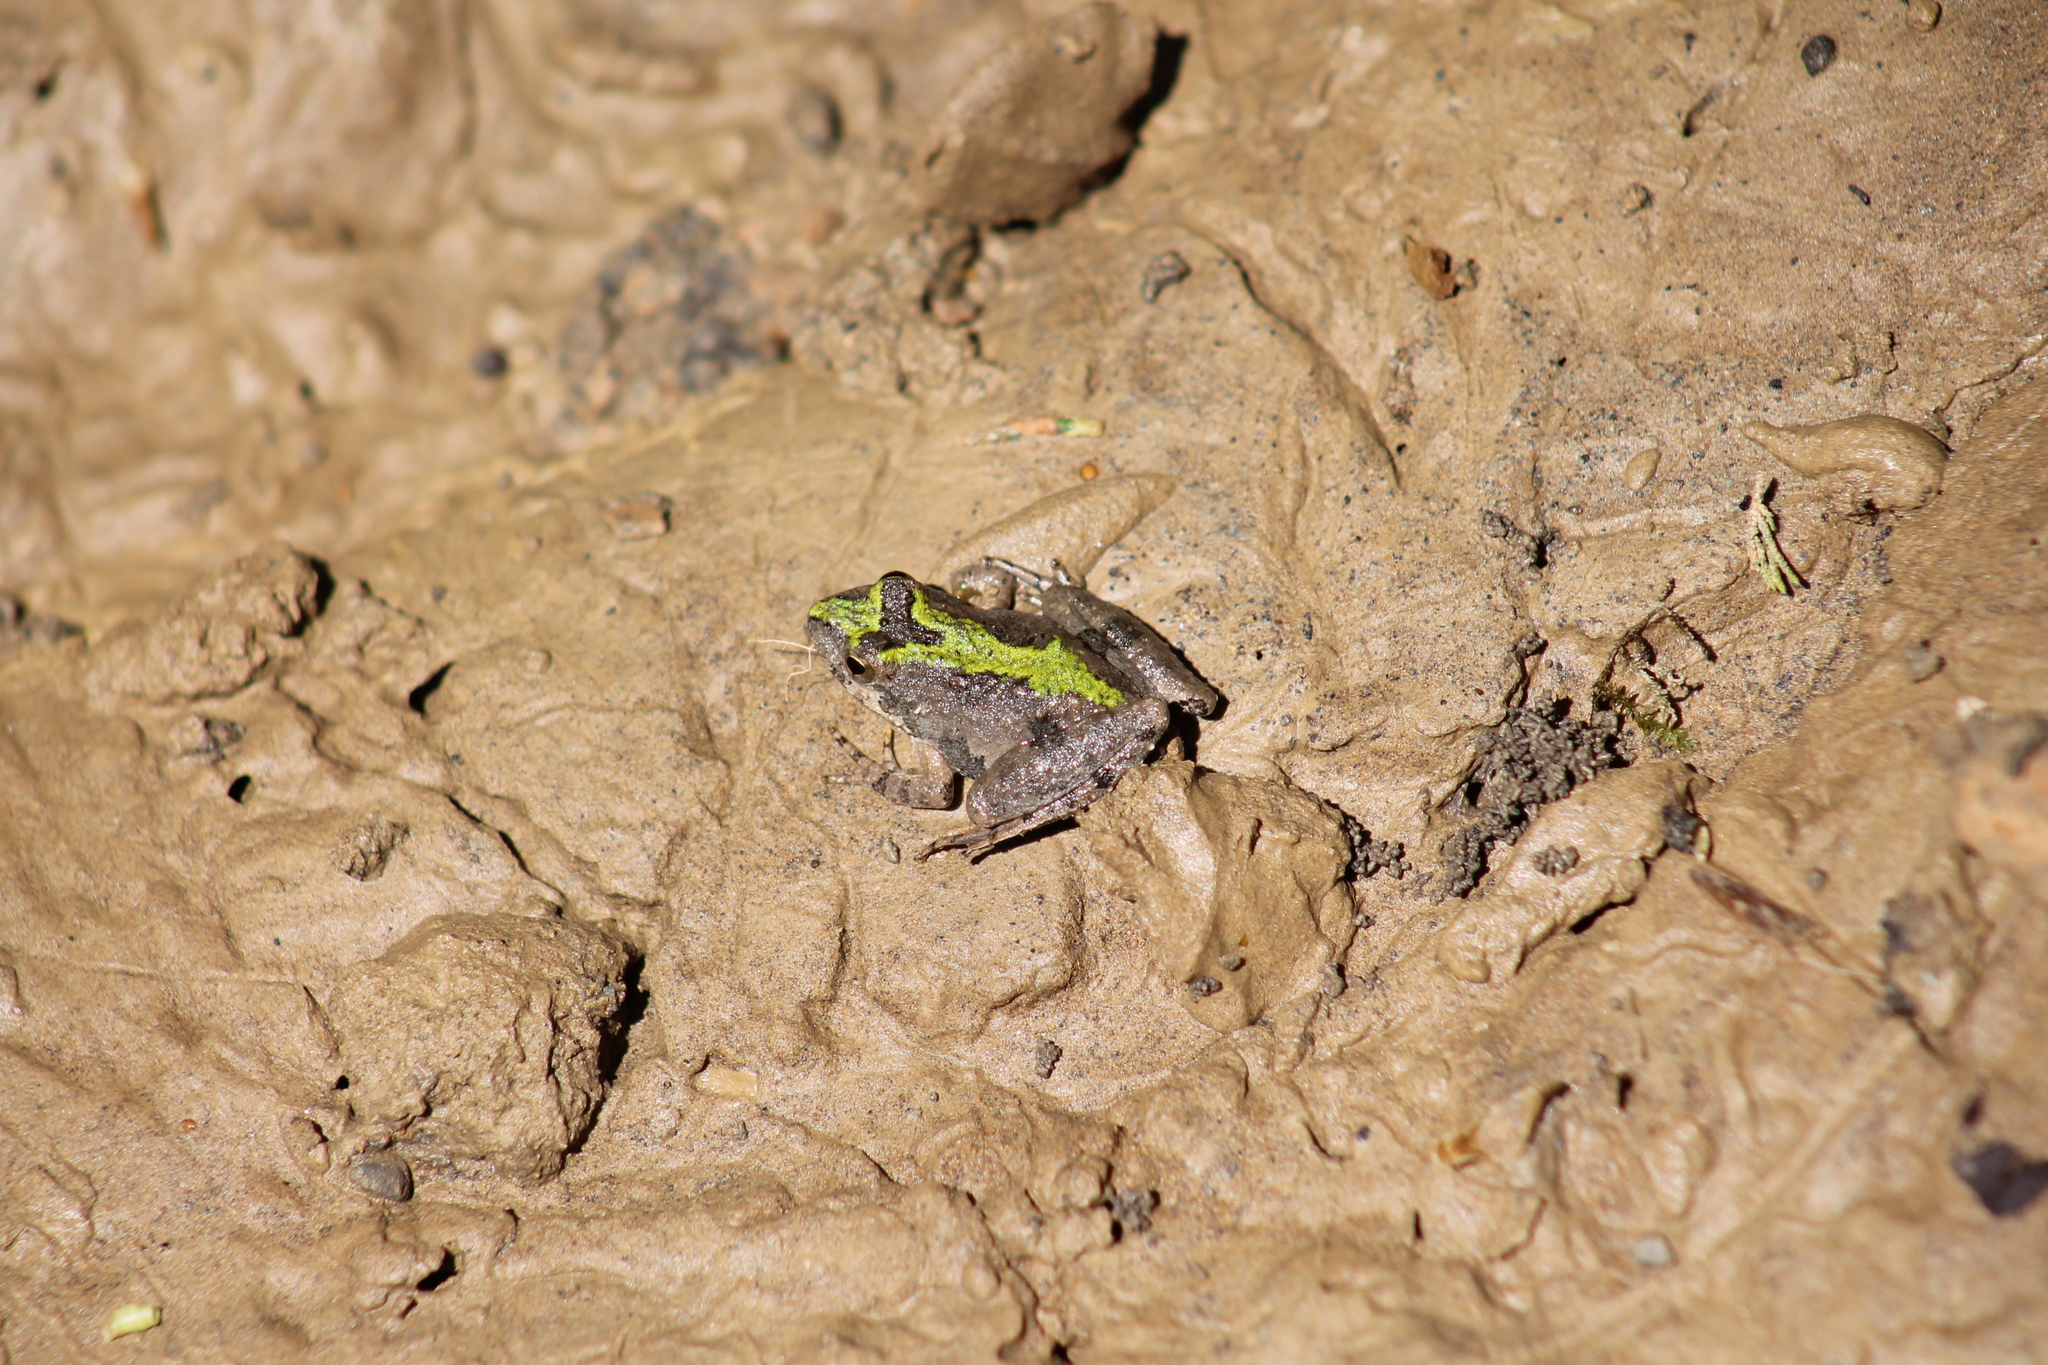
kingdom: Animalia
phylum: Chordata
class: Amphibia
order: Anura
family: Hylidae
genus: Acris
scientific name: Acris crepitans
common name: Northern cricket frog
